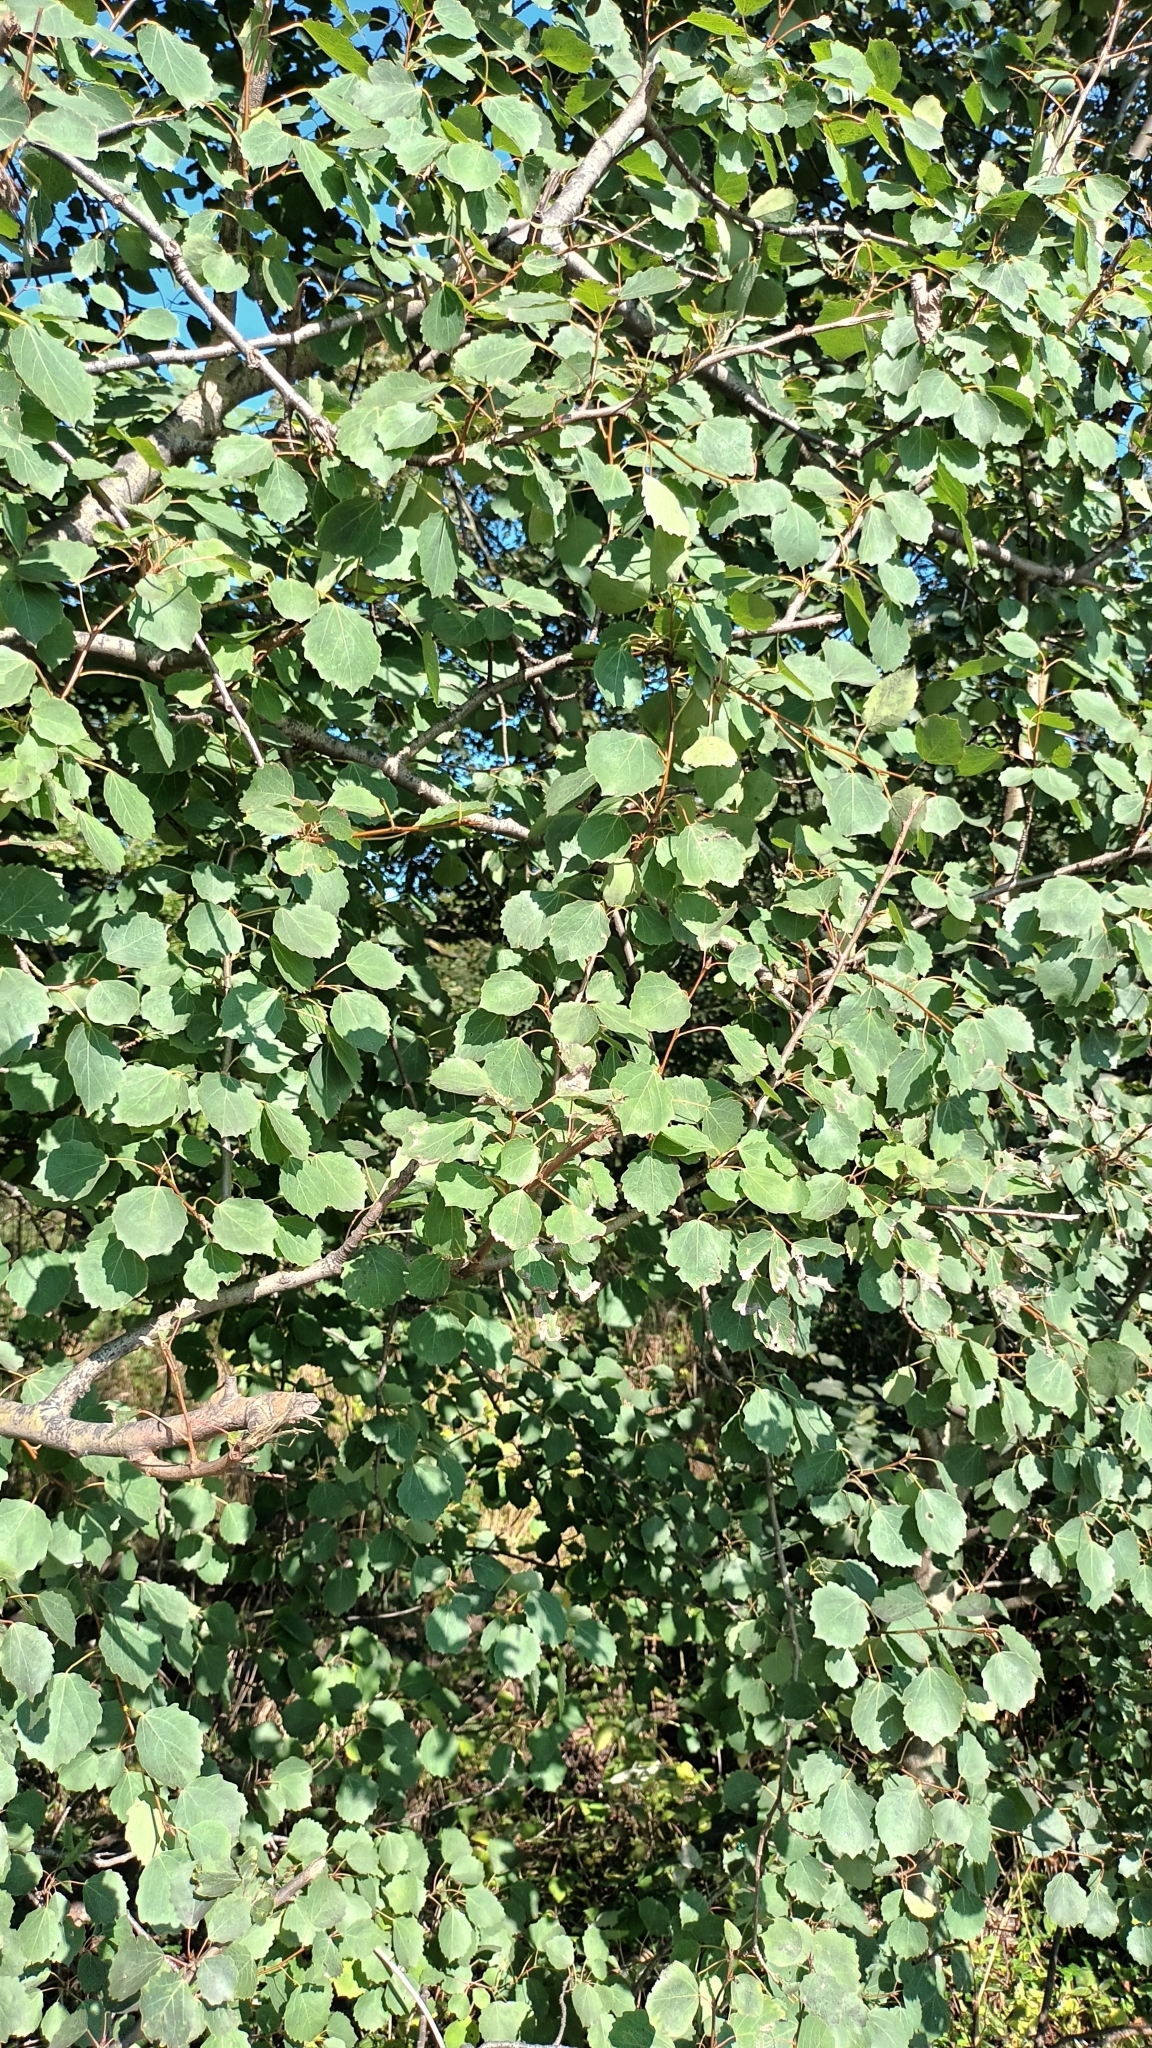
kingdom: Plantae
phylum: Tracheophyta
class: Magnoliopsida
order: Malpighiales
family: Salicaceae
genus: Populus
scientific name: Populus tremula
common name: European aspen
